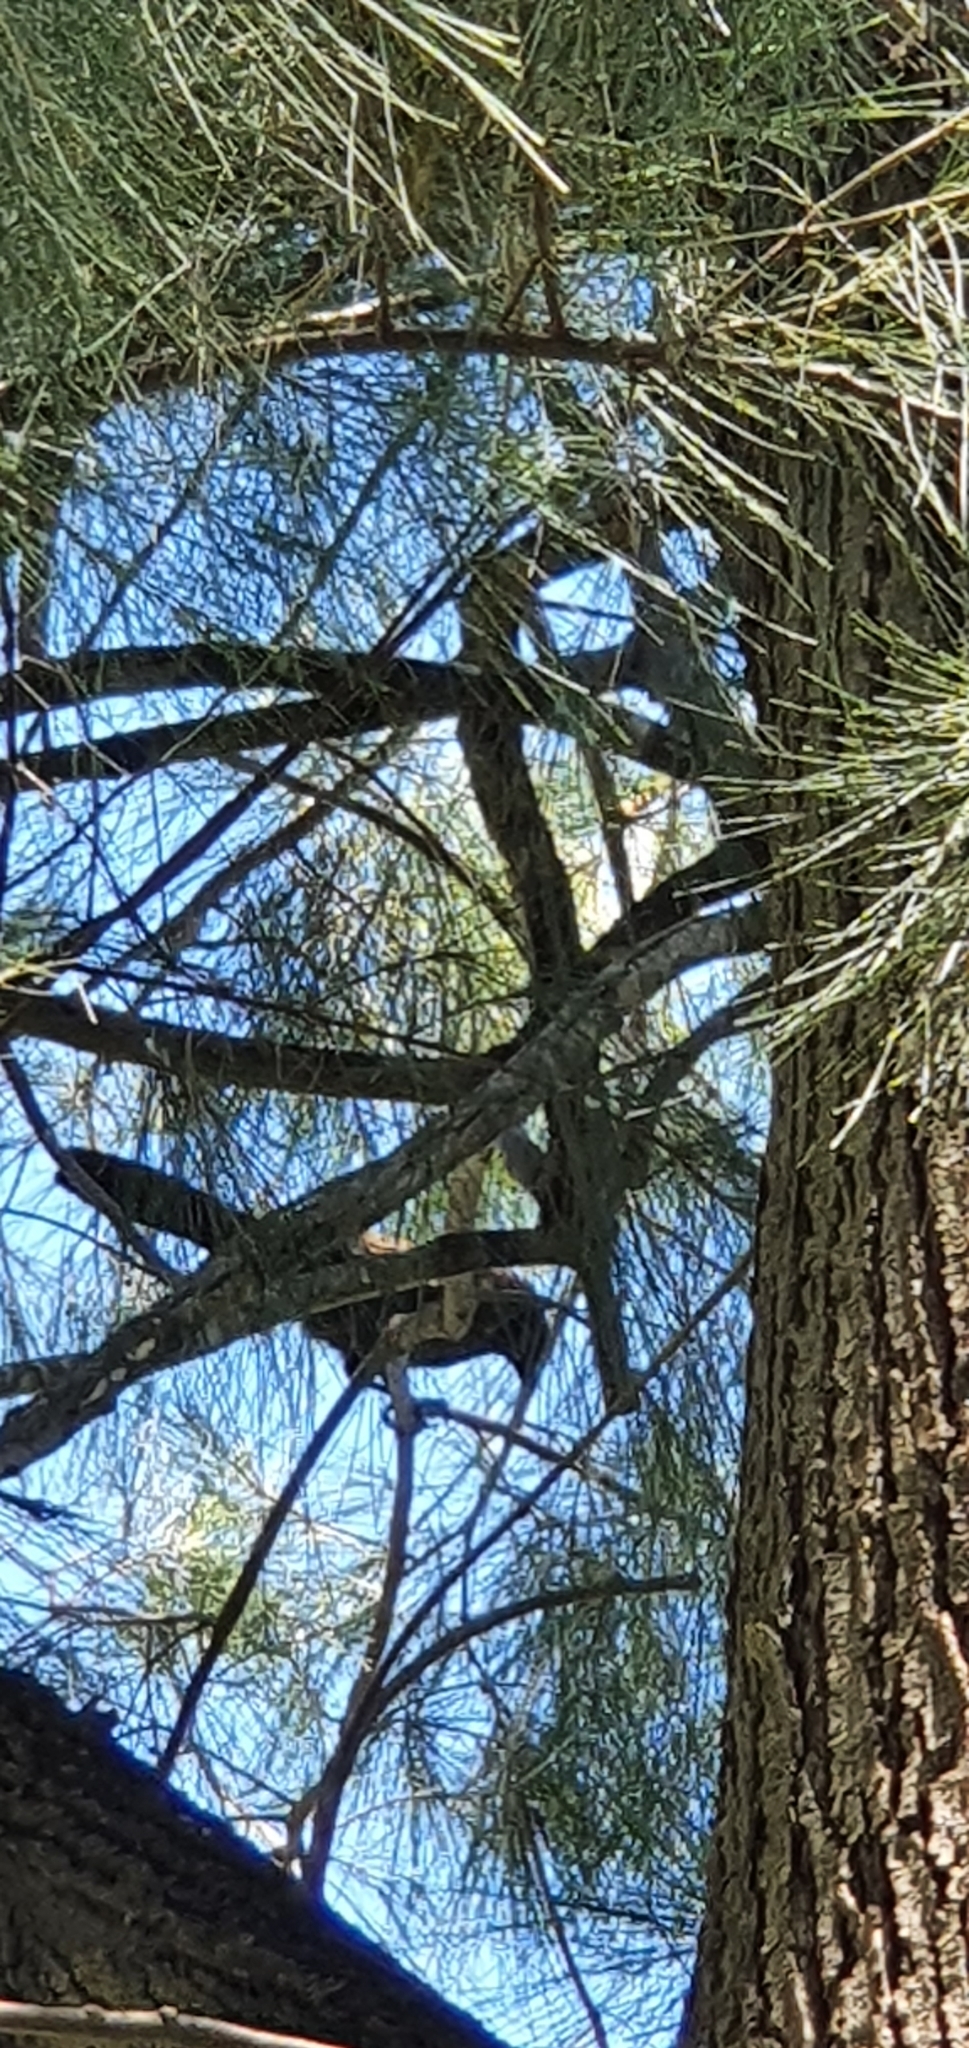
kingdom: Animalia
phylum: Chordata
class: Aves
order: Passeriformes
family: Corcoracidae
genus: Struthidea
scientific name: Struthidea cinerea
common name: Apostlebird
